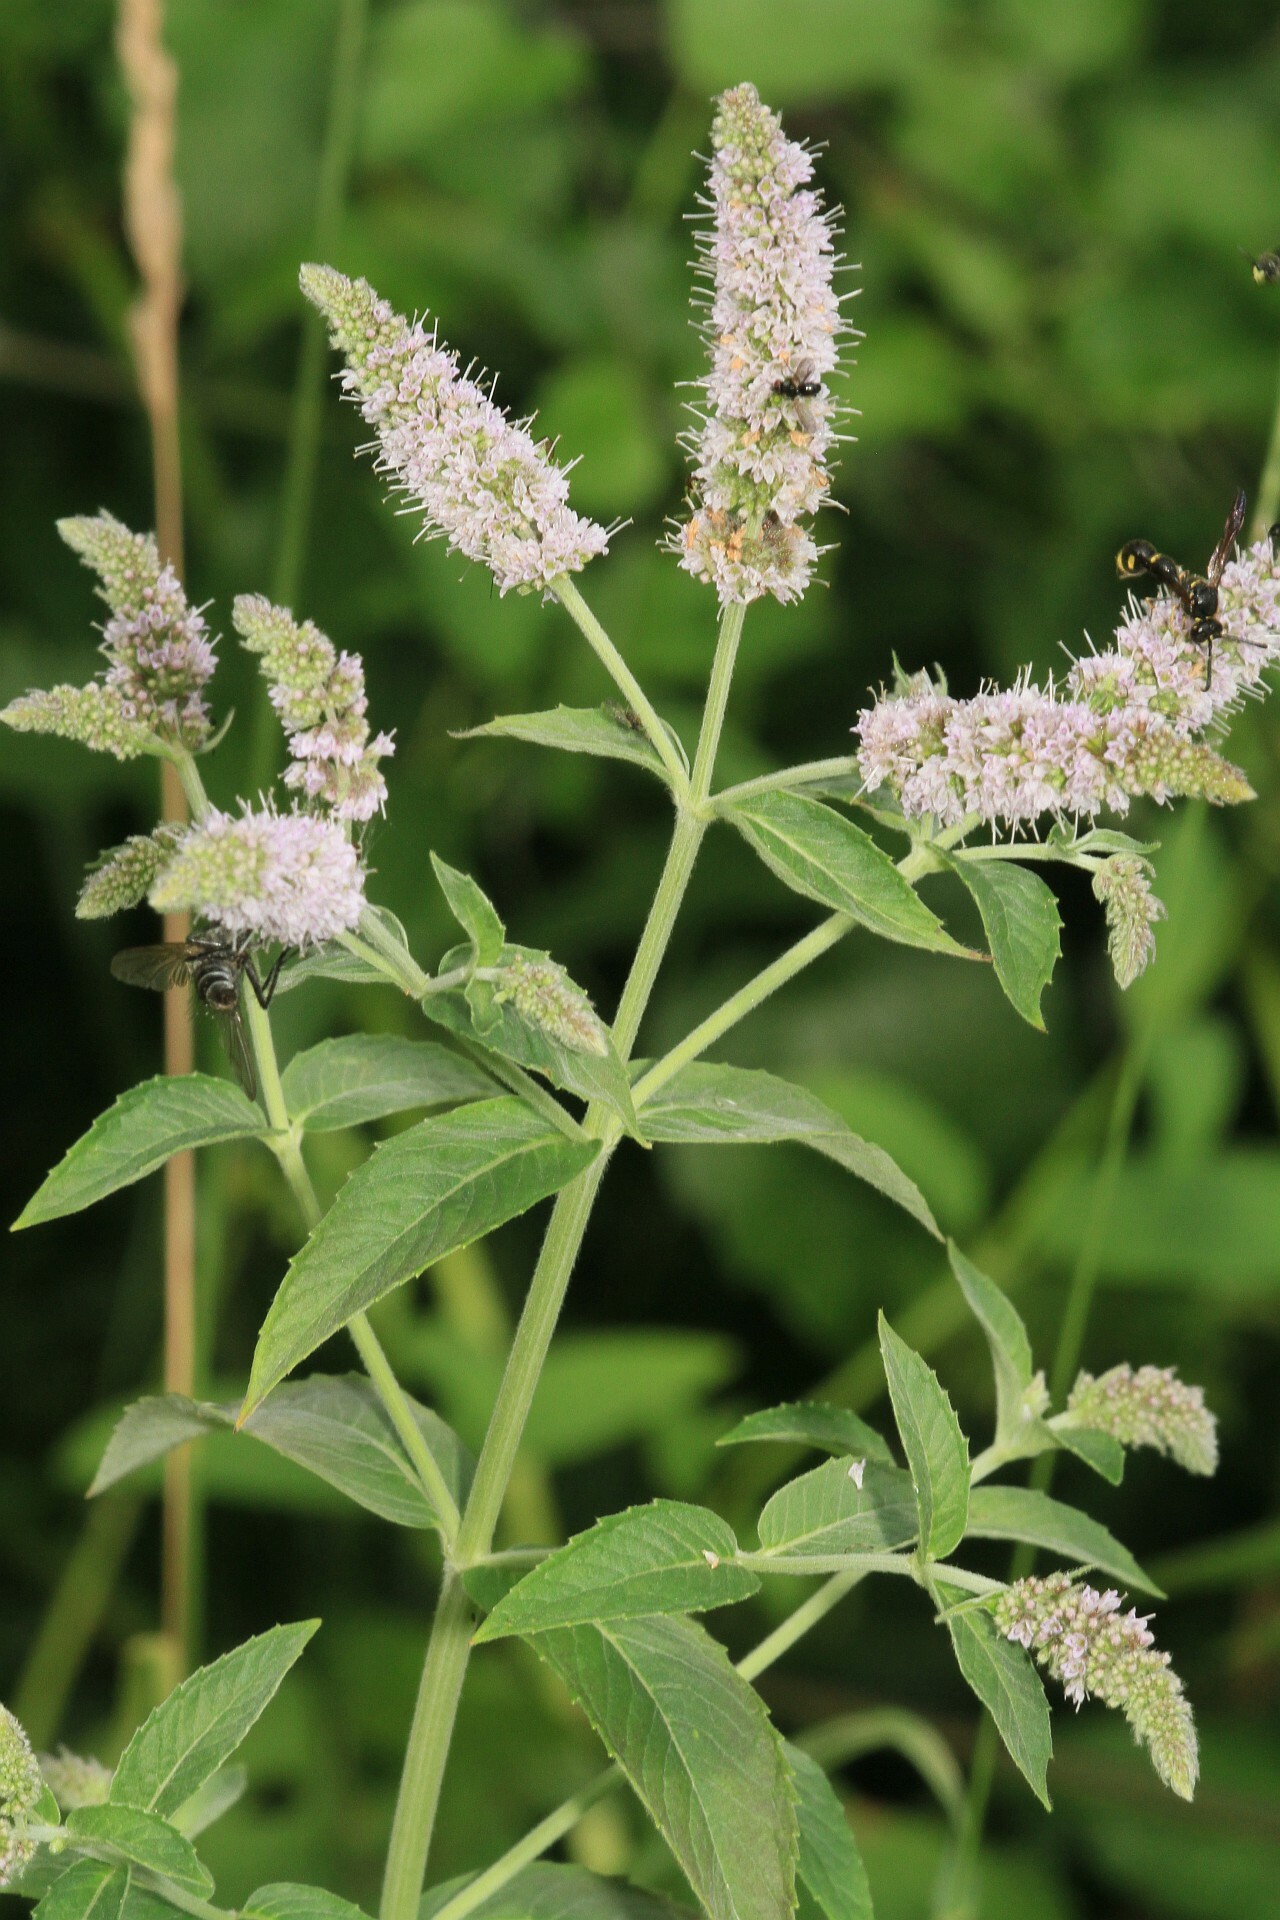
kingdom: Plantae
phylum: Tracheophyta
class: Magnoliopsida
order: Lamiales
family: Lamiaceae
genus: Mentha
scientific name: Mentha longifolia
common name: Horse mint
